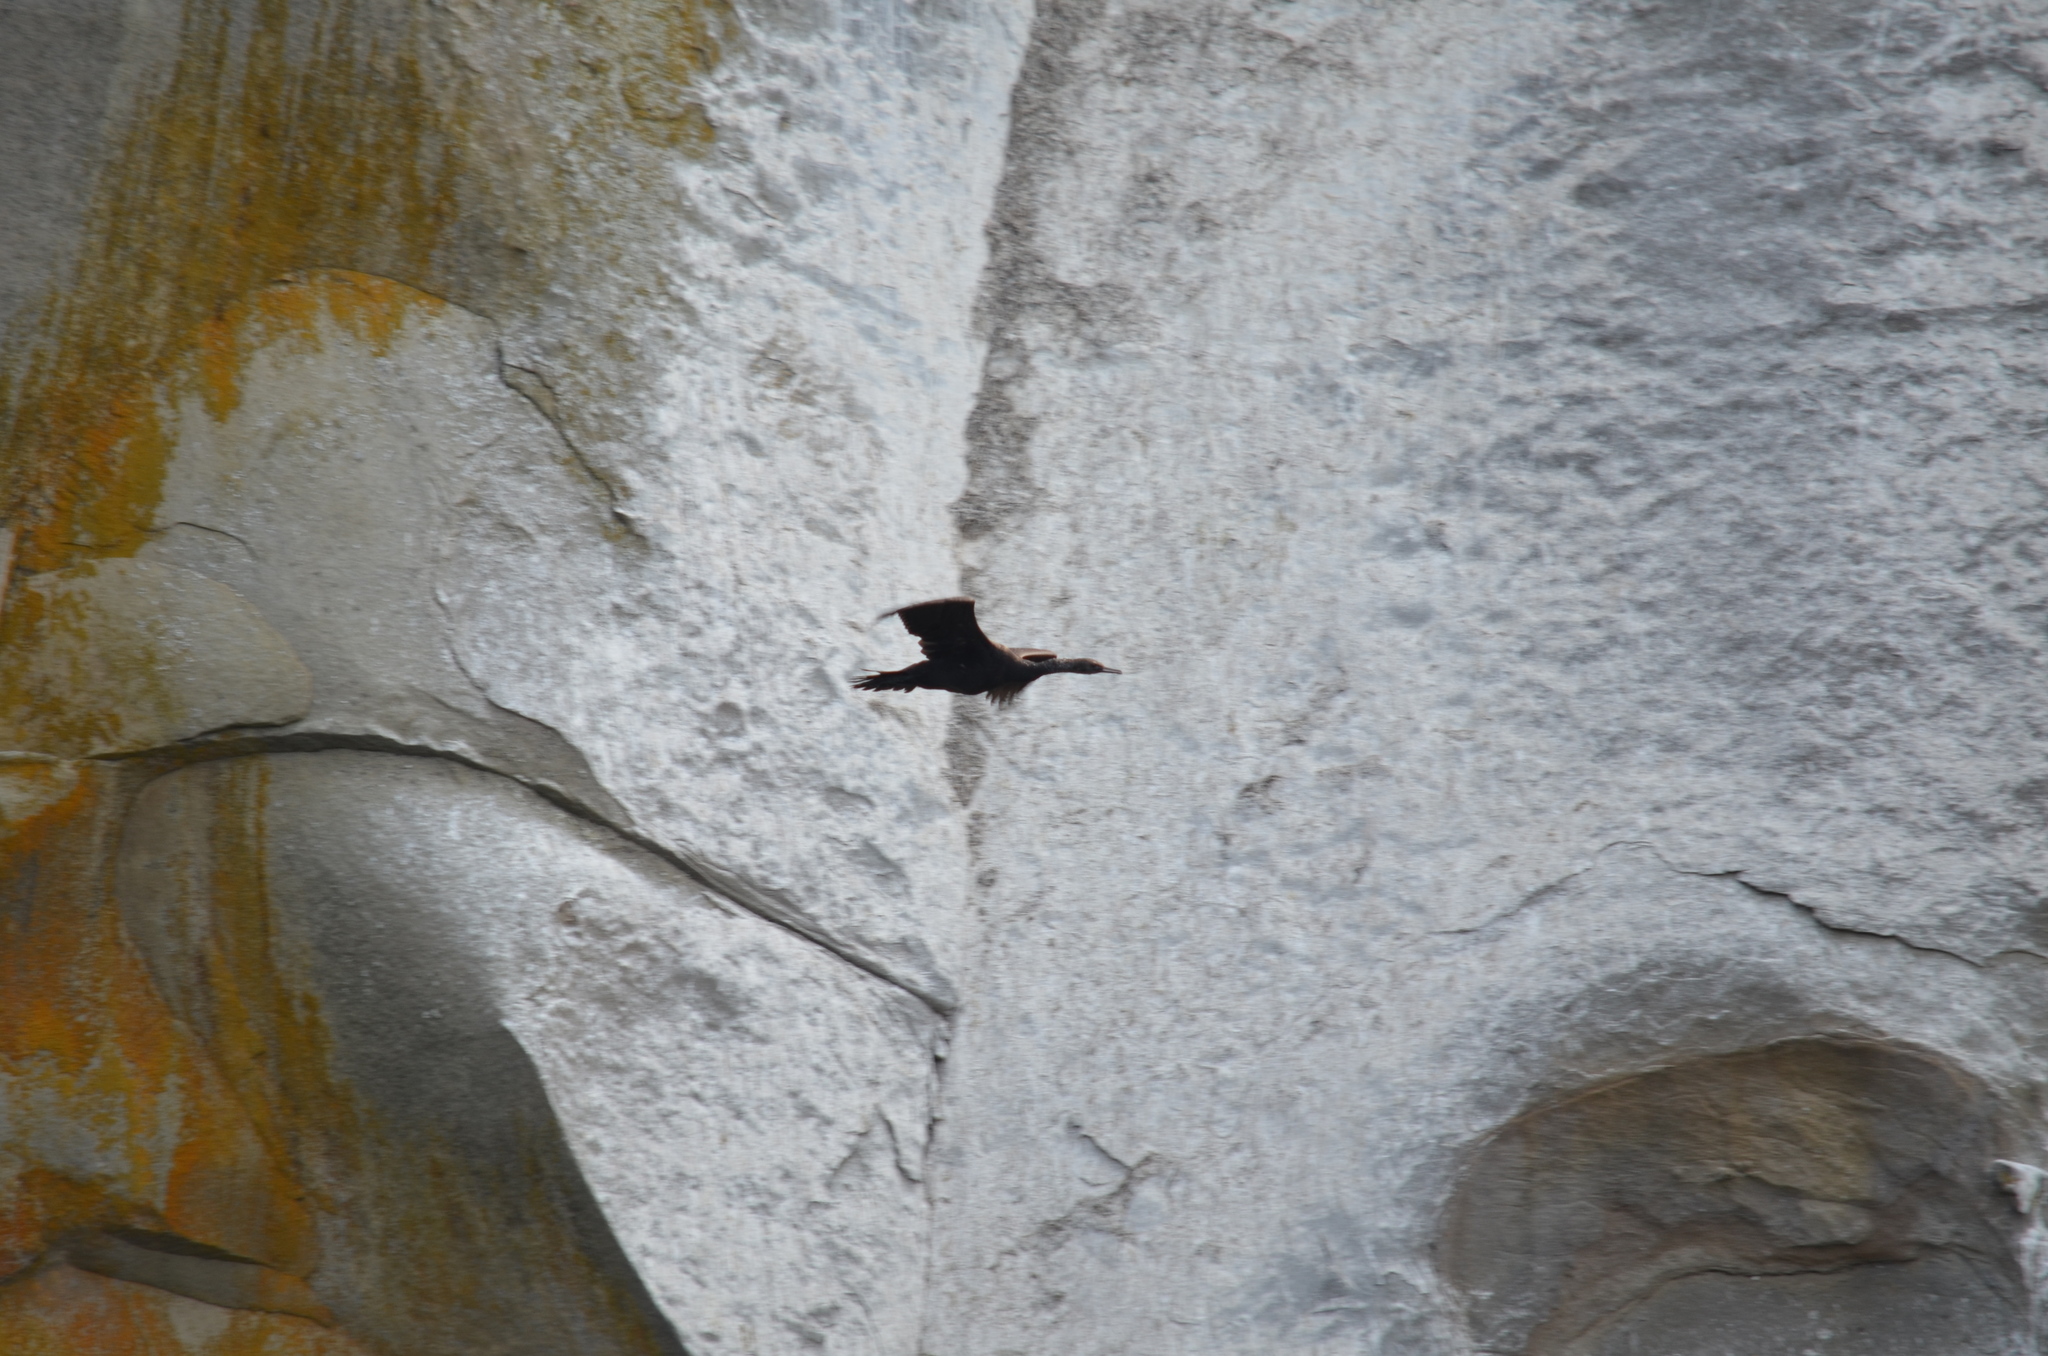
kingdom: Animalia
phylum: Chordata
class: Aves
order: Suliformes
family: Phalacrocoracidae
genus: Phalacrocorax
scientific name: Phalacrocorax pelagicus
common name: Pelagic cormorant
